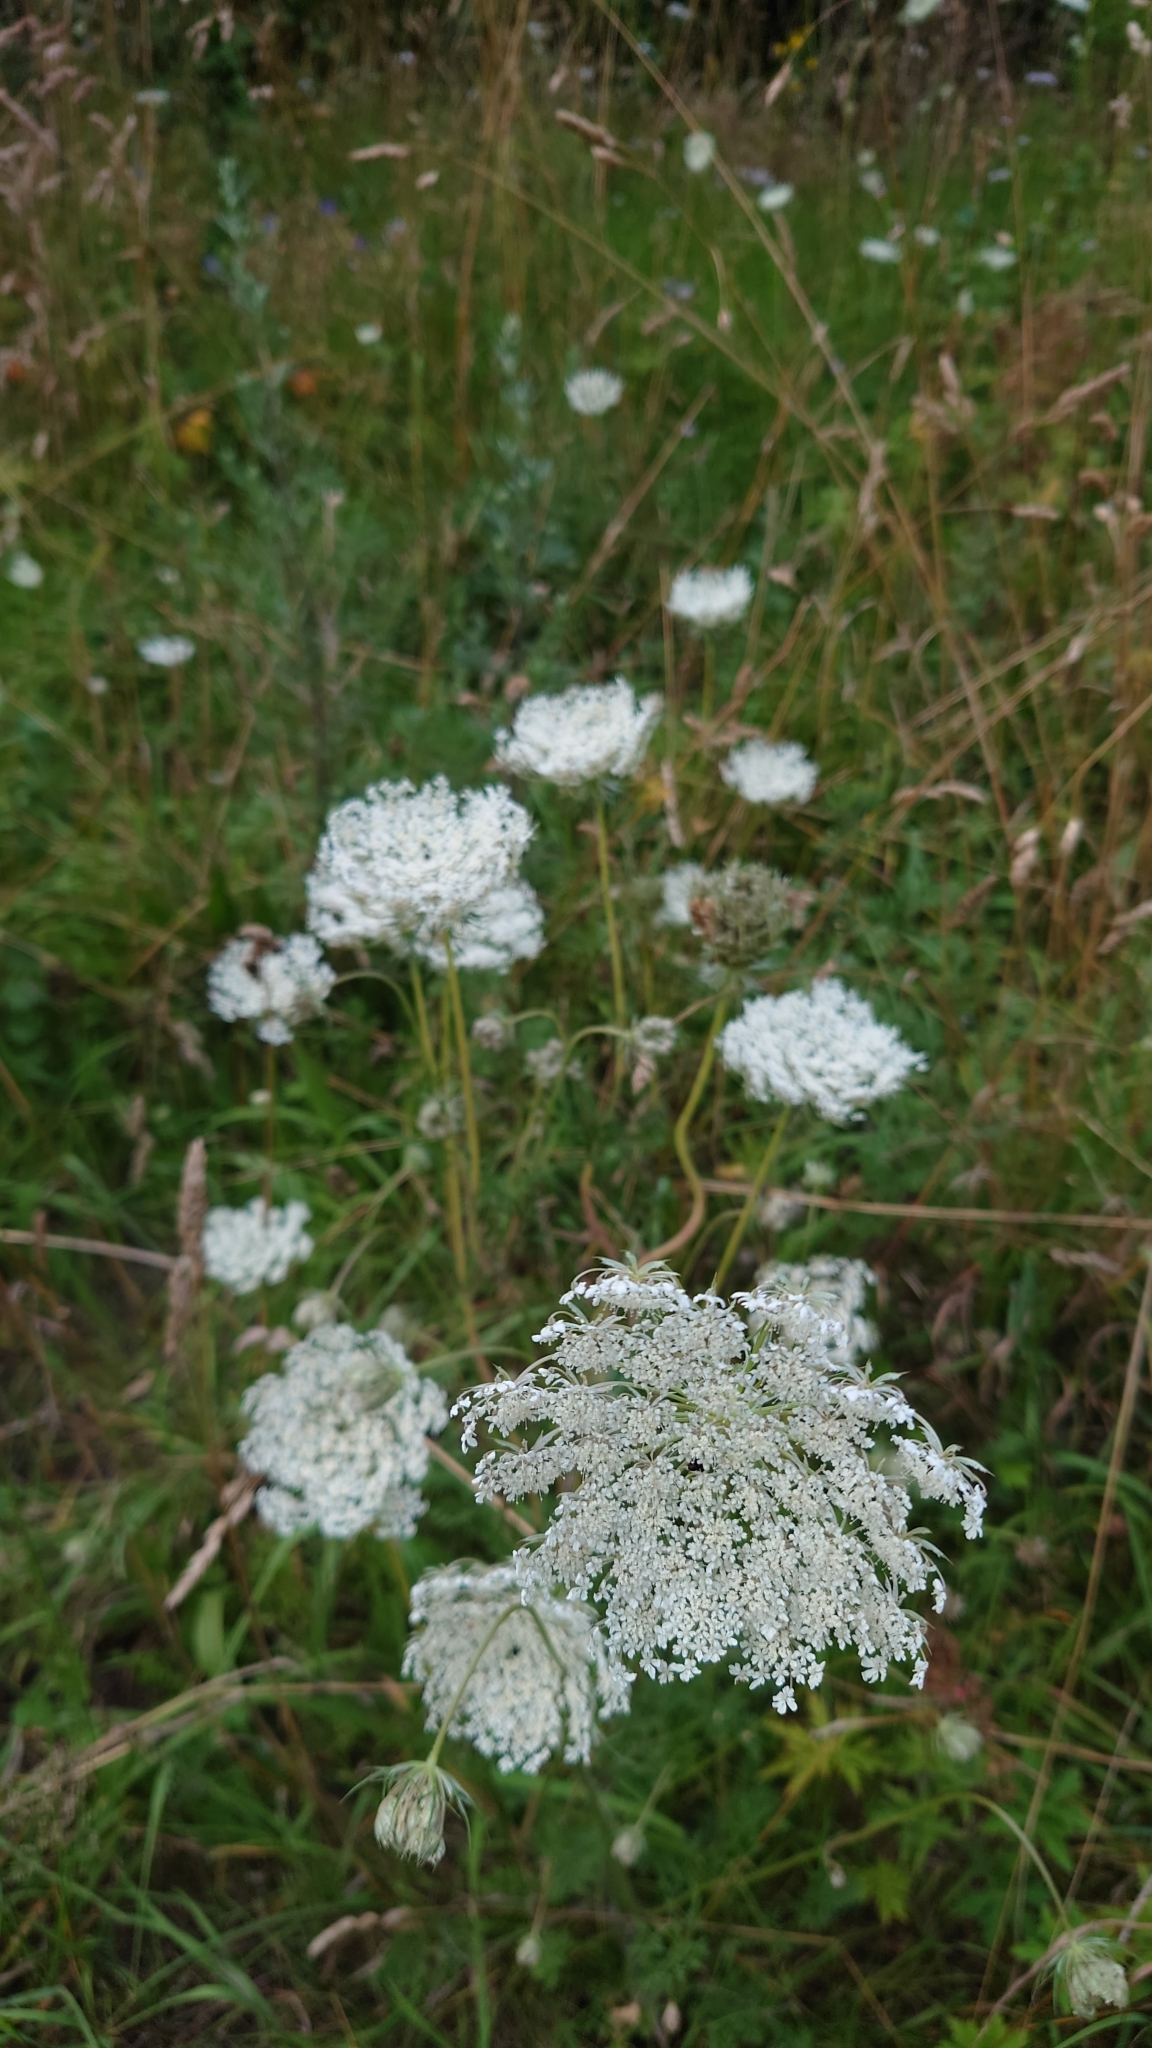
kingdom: Plantae
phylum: Tracheophyta
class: Magnoliopsida
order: Apiales
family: Apiaceae
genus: Daucus
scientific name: Daucus carota
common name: Wild carrot
